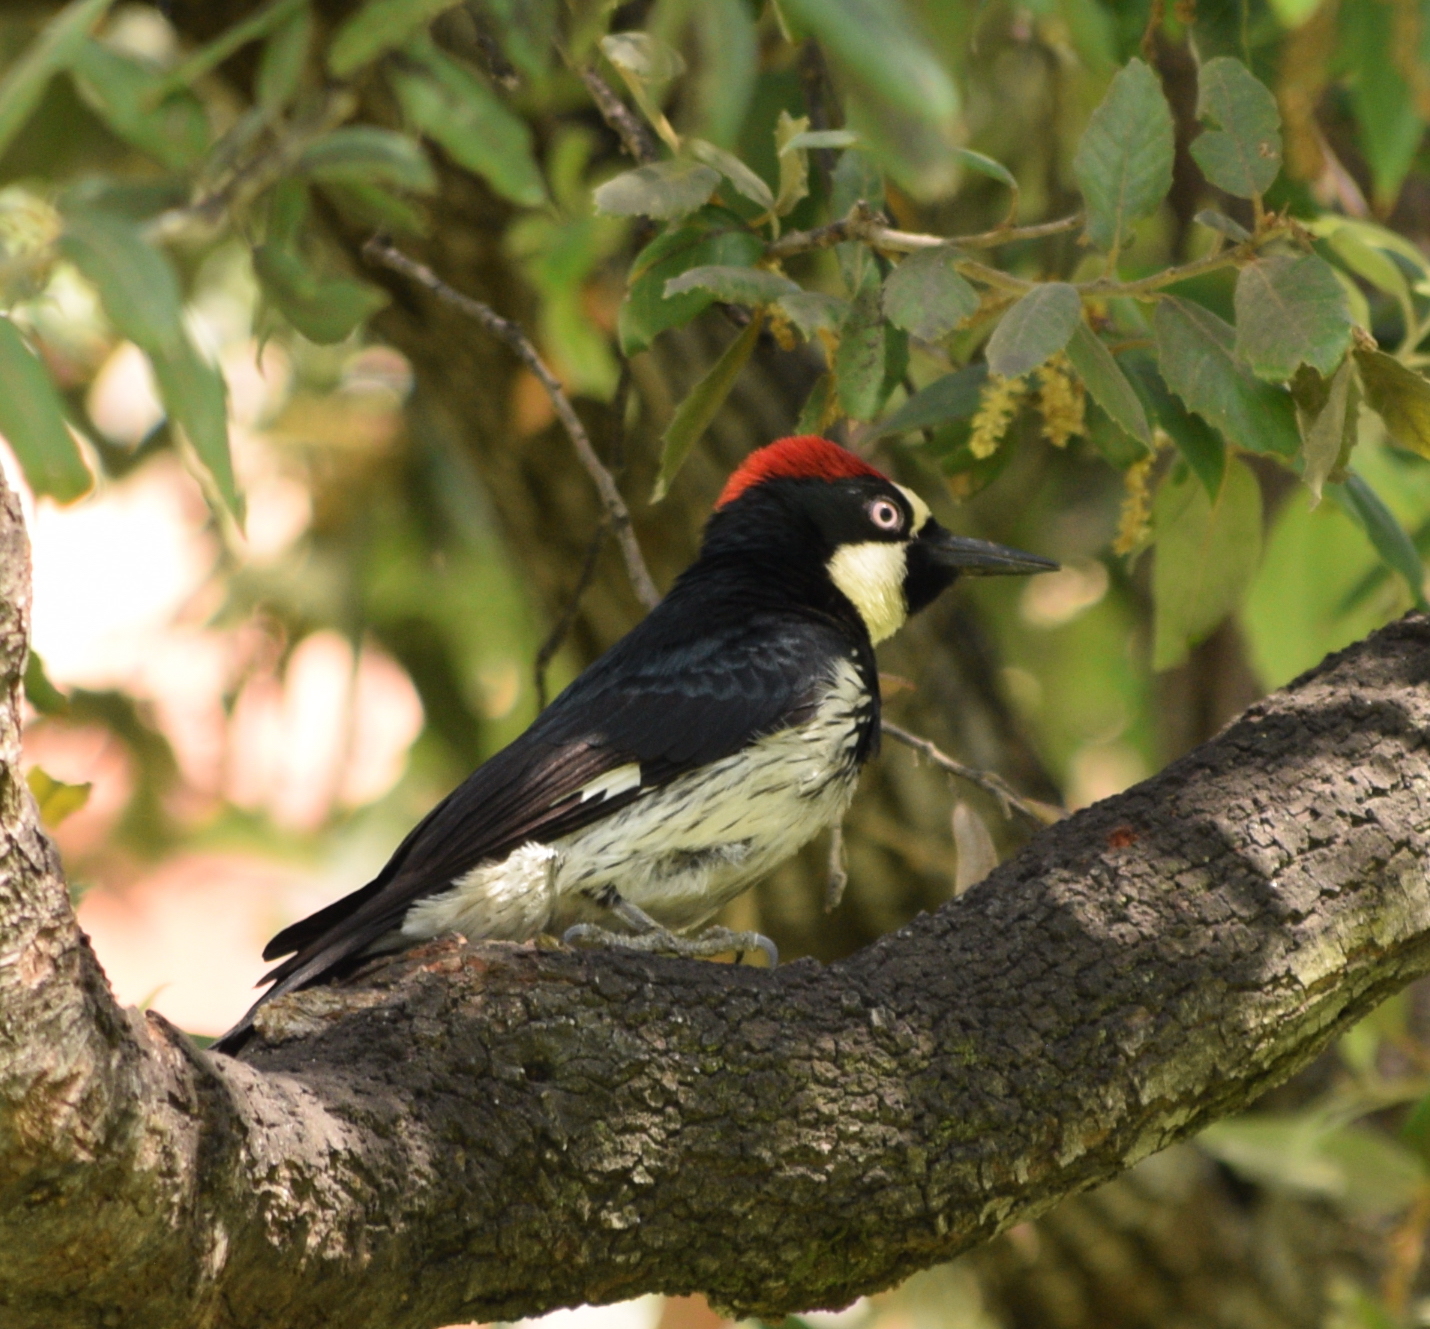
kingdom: Animalia
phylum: Chordata
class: Aves
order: Piciformes
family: Picidae
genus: Melanerpes
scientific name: Melanerpes formicivorus
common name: Acorn woodpecker
